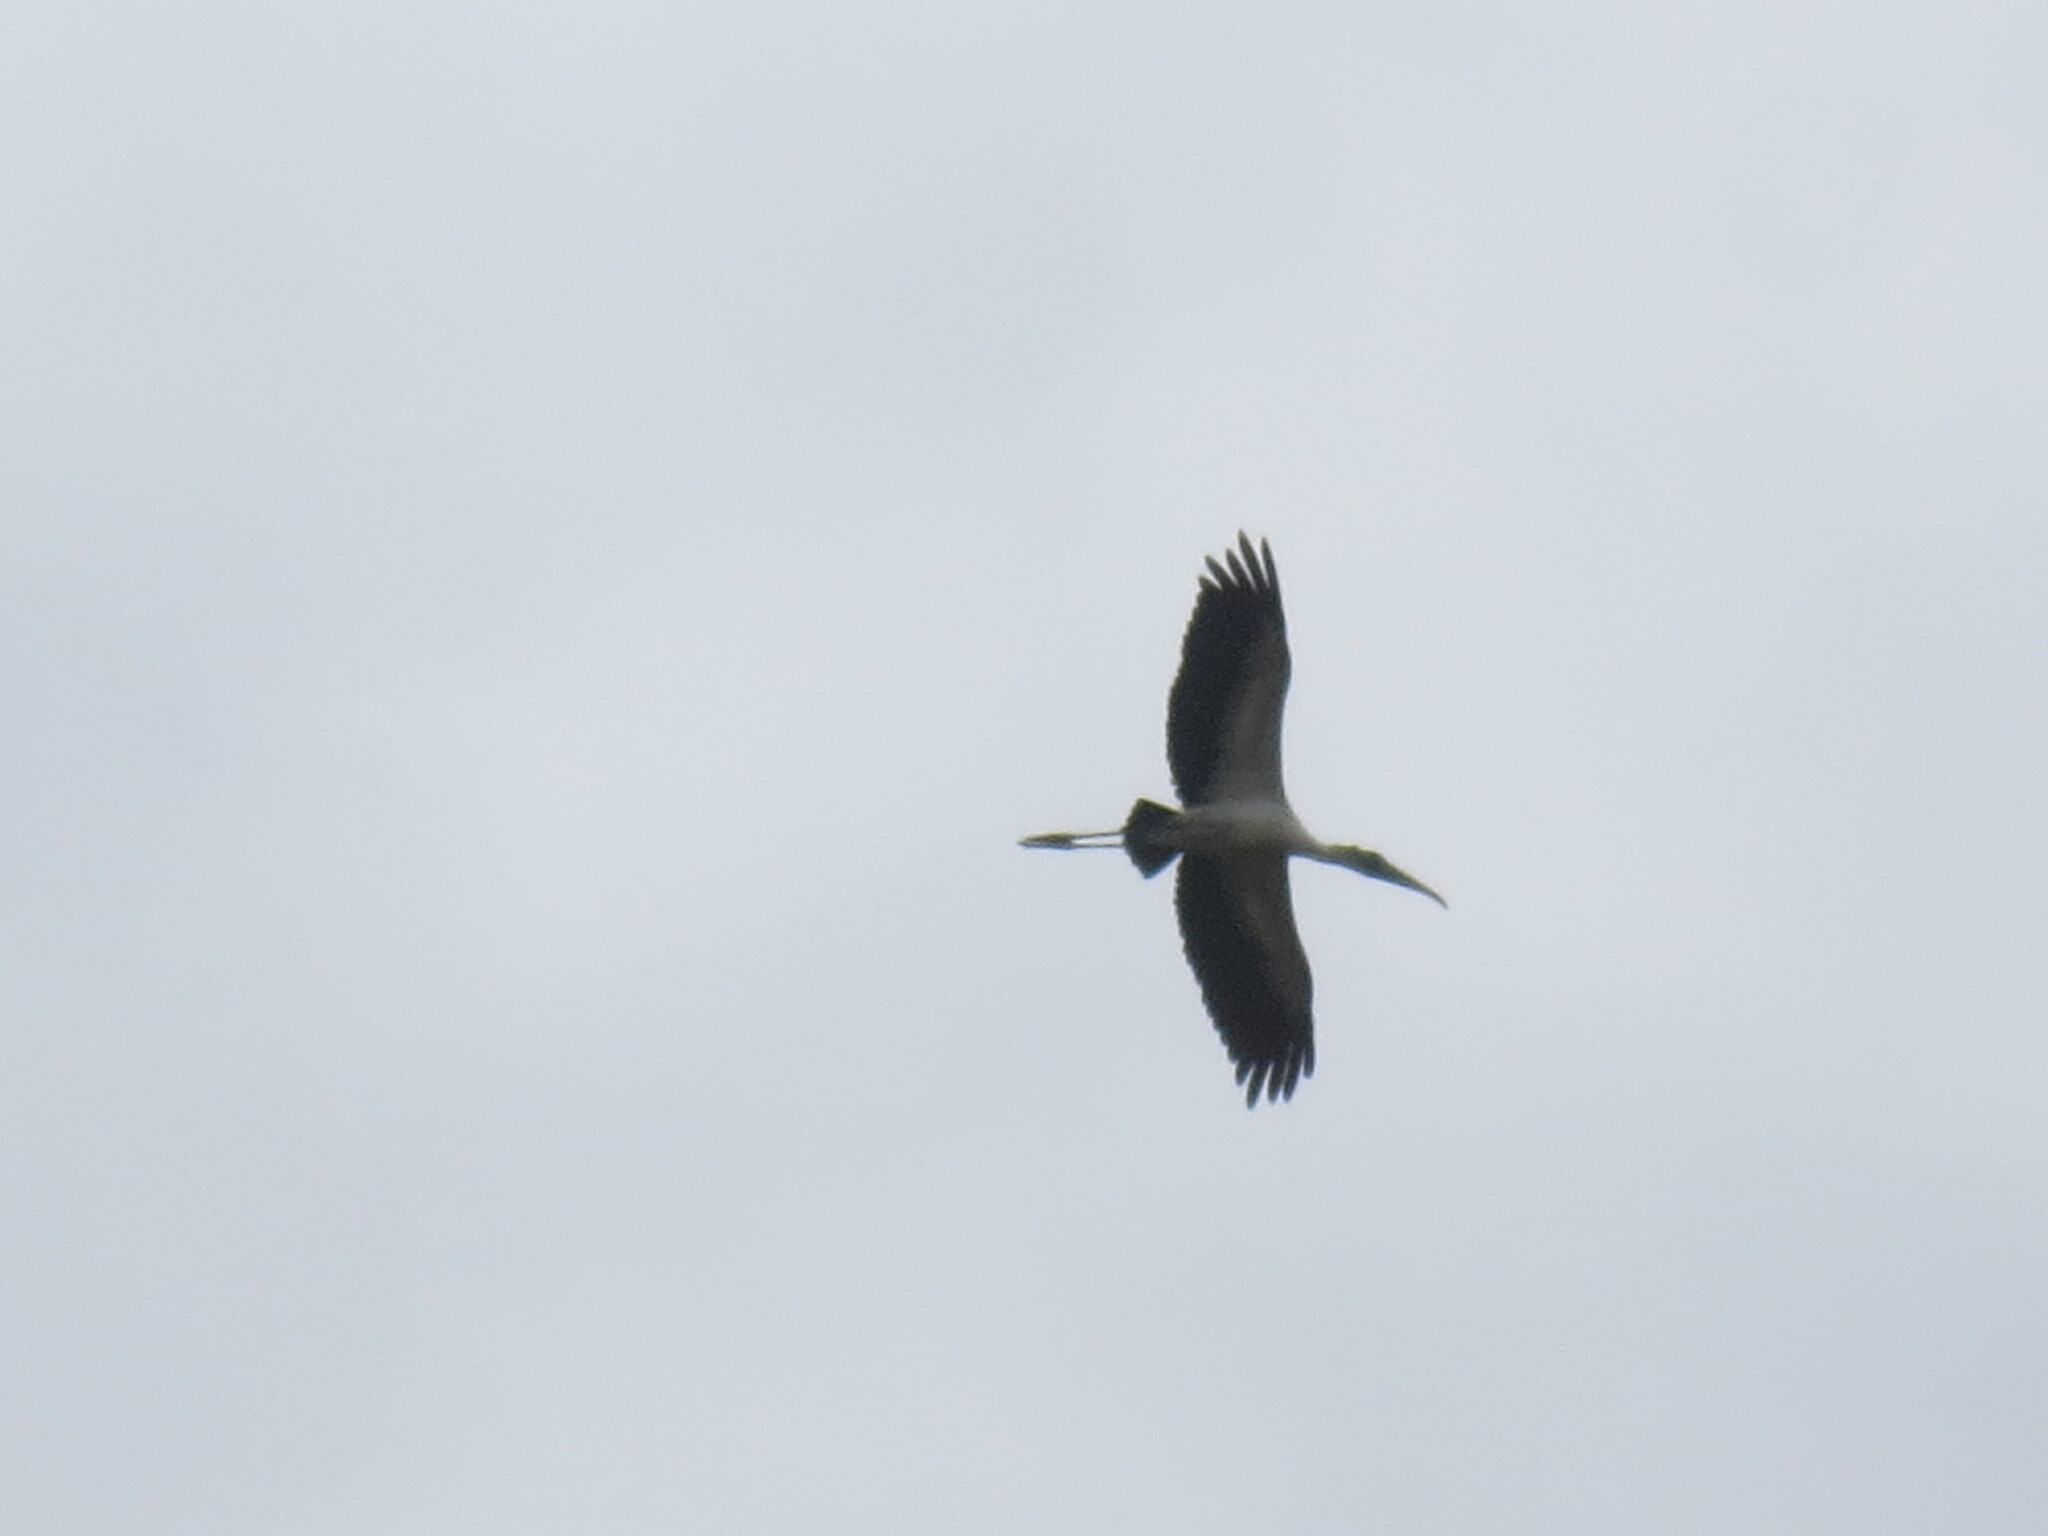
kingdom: Animalia
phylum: Chordata
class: Aves
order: Ciconiiformes
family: Ciconiidae
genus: Mycteria
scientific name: Mycteria americana
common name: Wood stork
